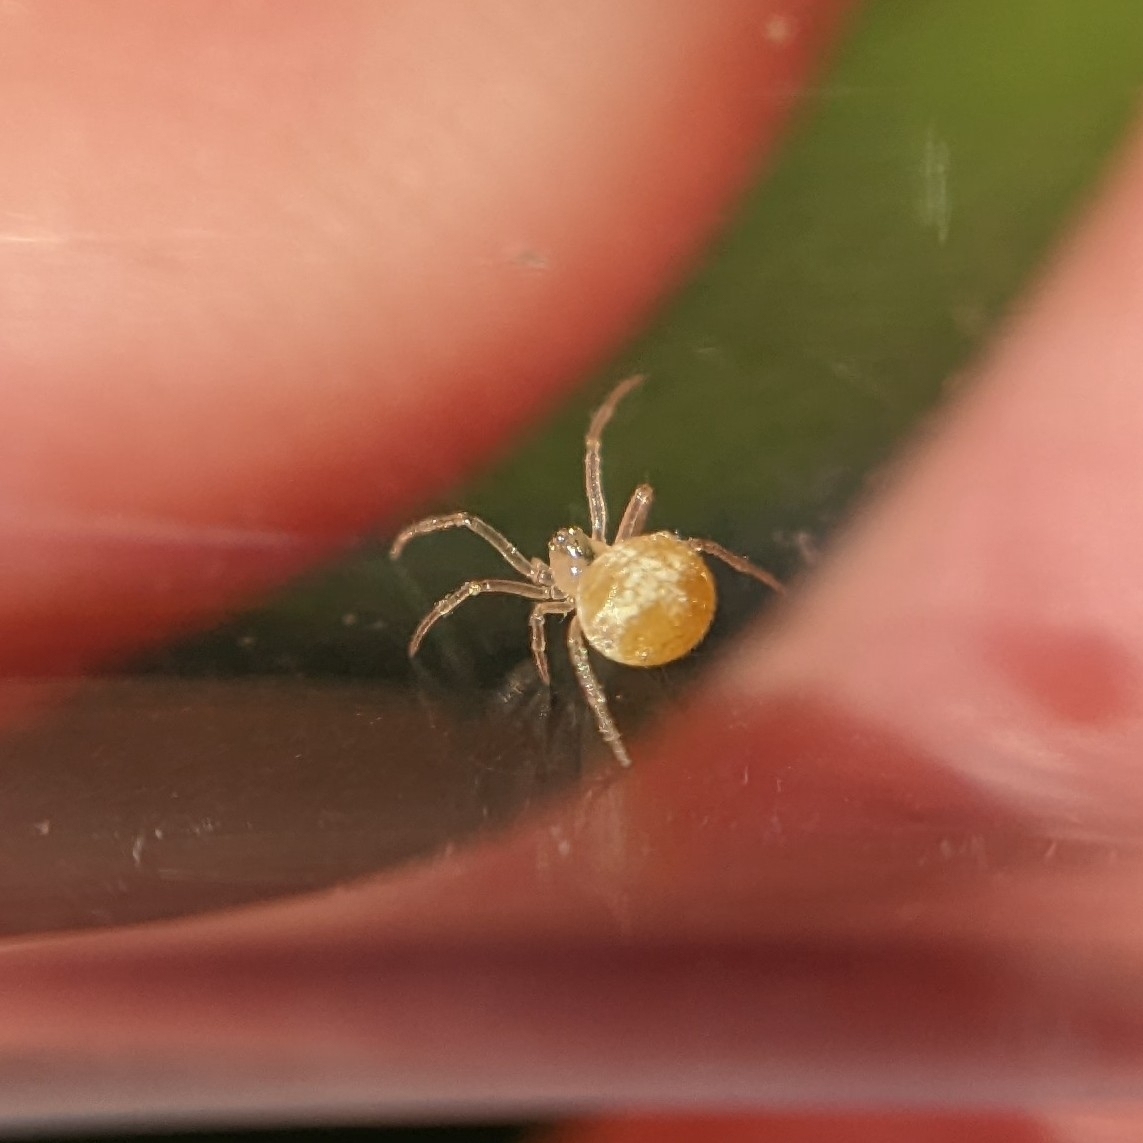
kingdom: Animalia
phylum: Arthropoda
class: Arachnida
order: Araneae
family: Theridiidae
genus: Paidiscura
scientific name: Paidiscura pallens
